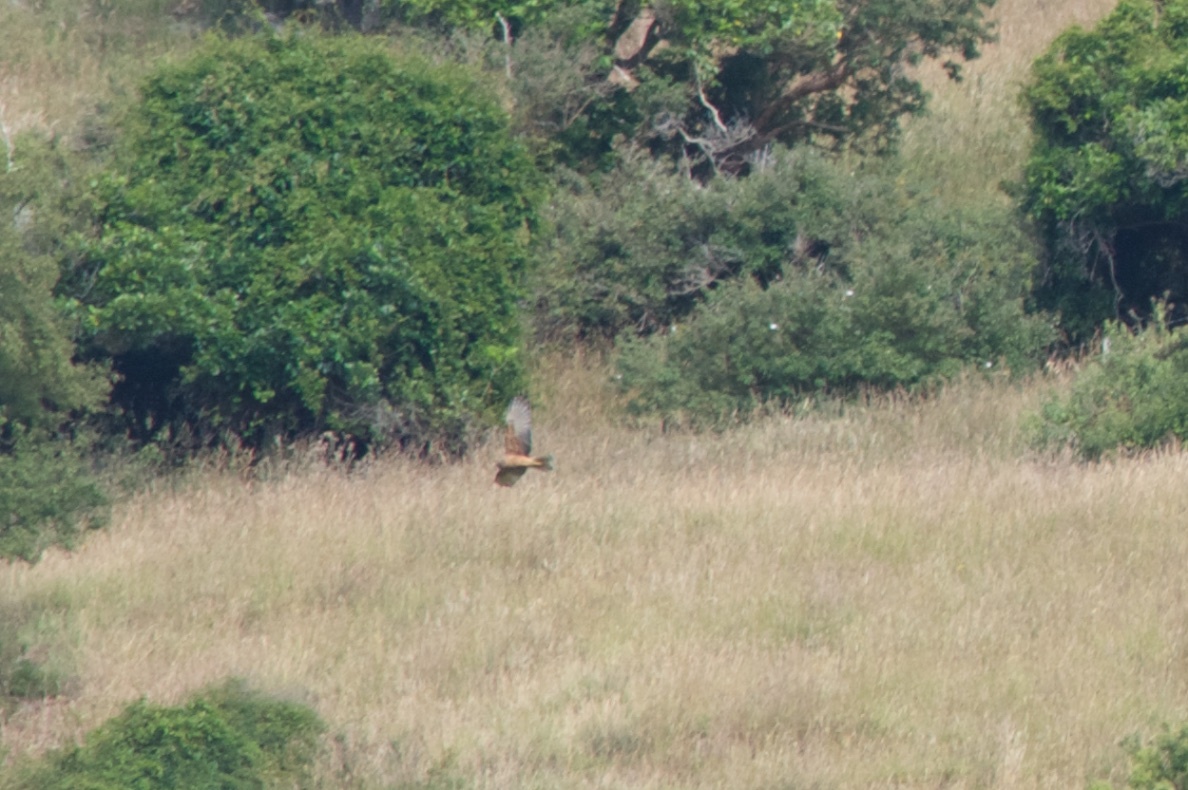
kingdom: Animalia
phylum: Chordata
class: Aves
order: Accipitriformes
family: Accipitridae
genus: Circus
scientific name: Circus approximans
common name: Swamp harrier
